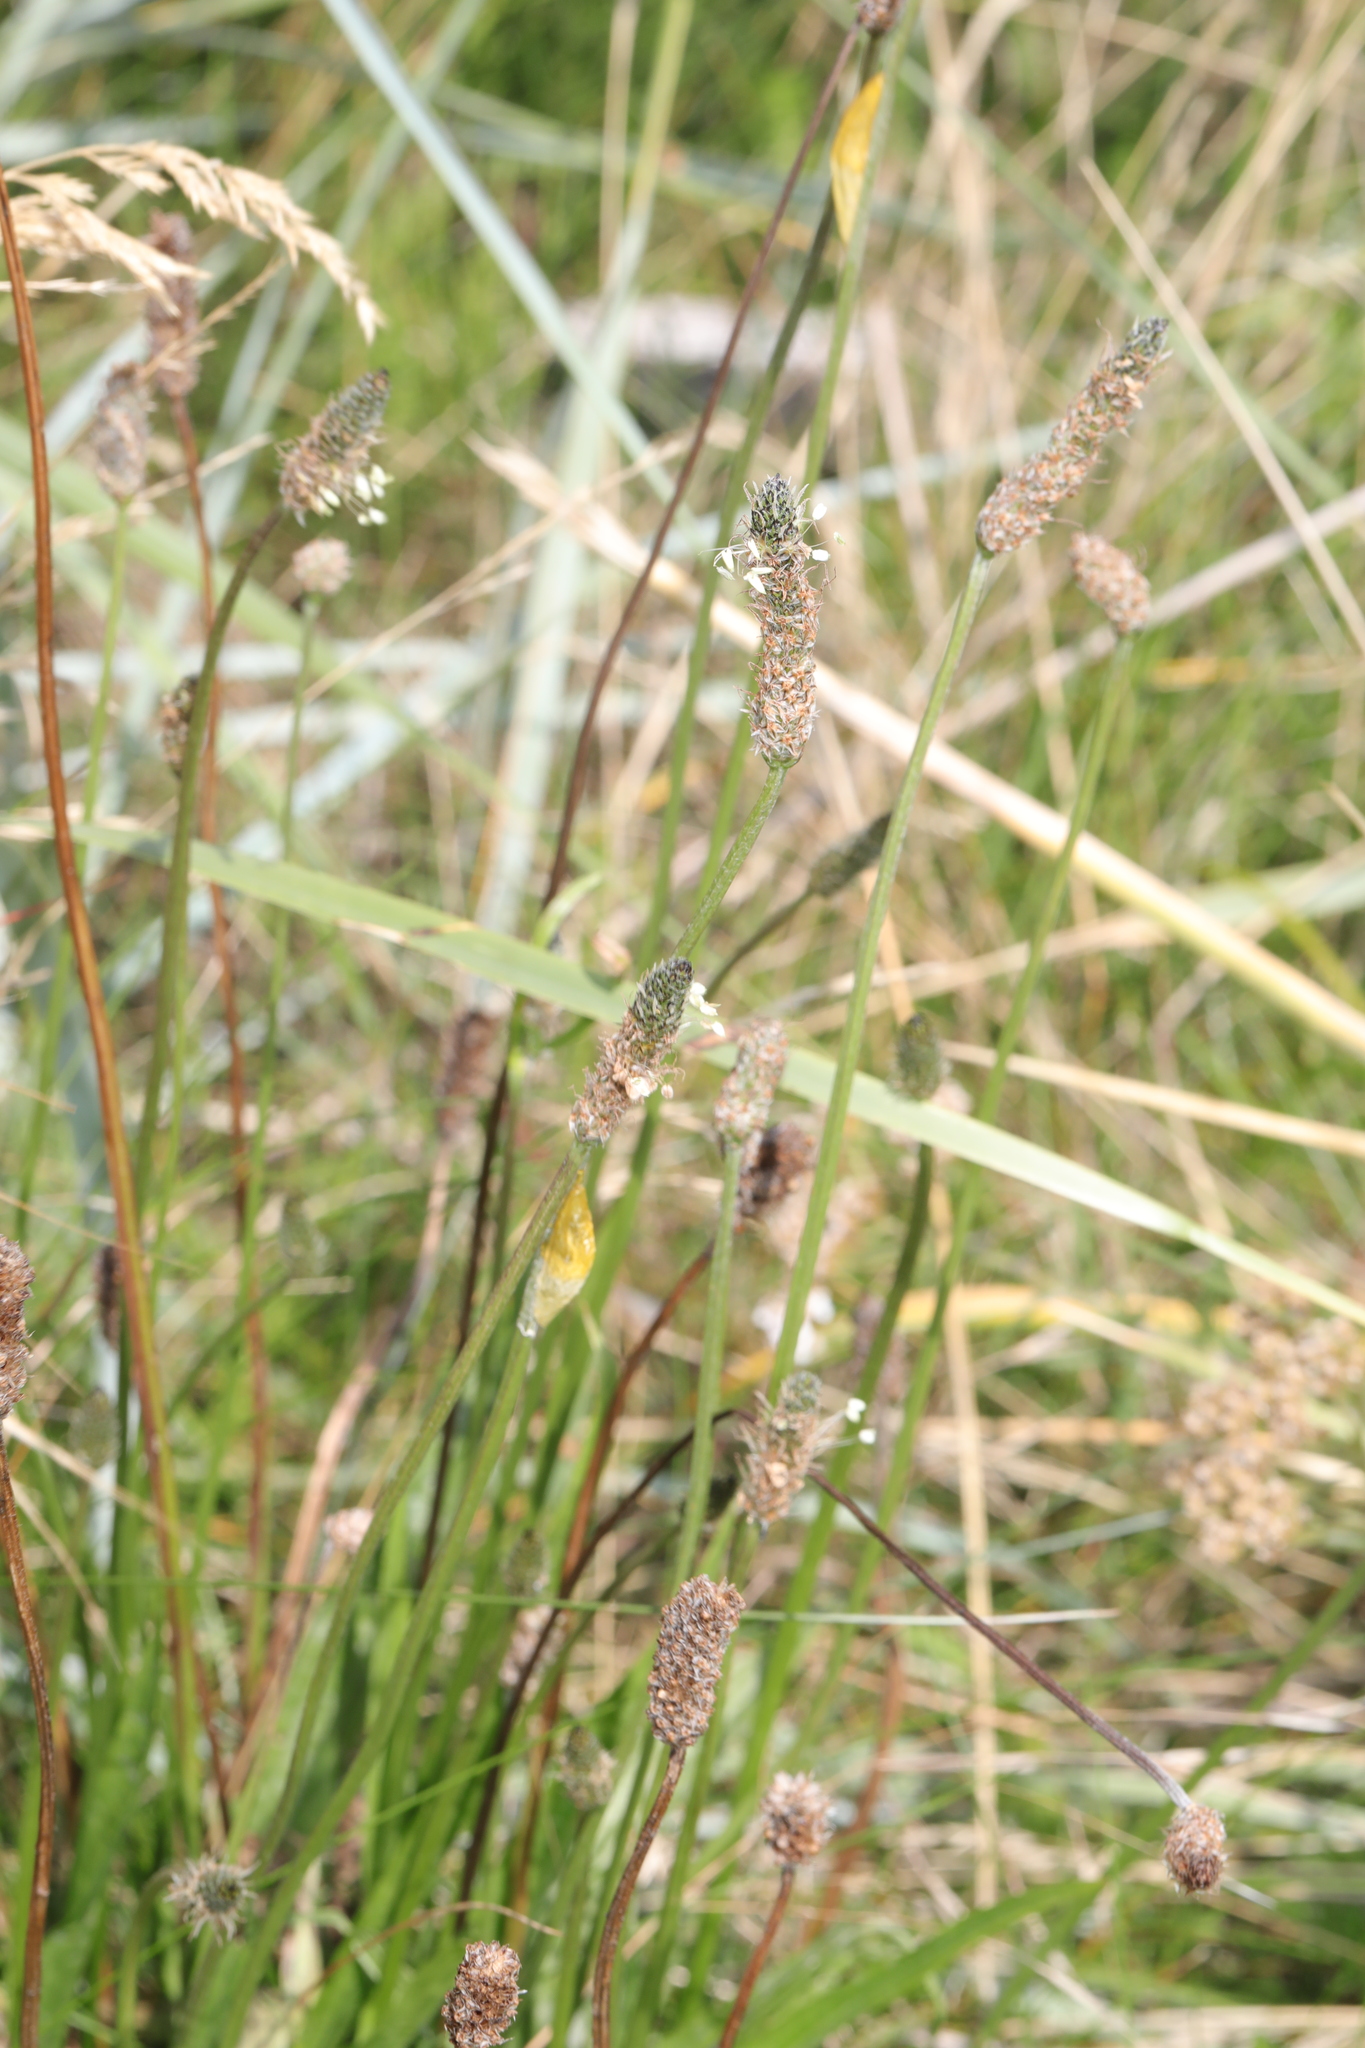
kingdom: Plantae
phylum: Tracheophyta
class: Magnoliopsida
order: Lamiales
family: Plantaginaceae
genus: Plantago
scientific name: Plantago lanceolata
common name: Ribwort plantain
